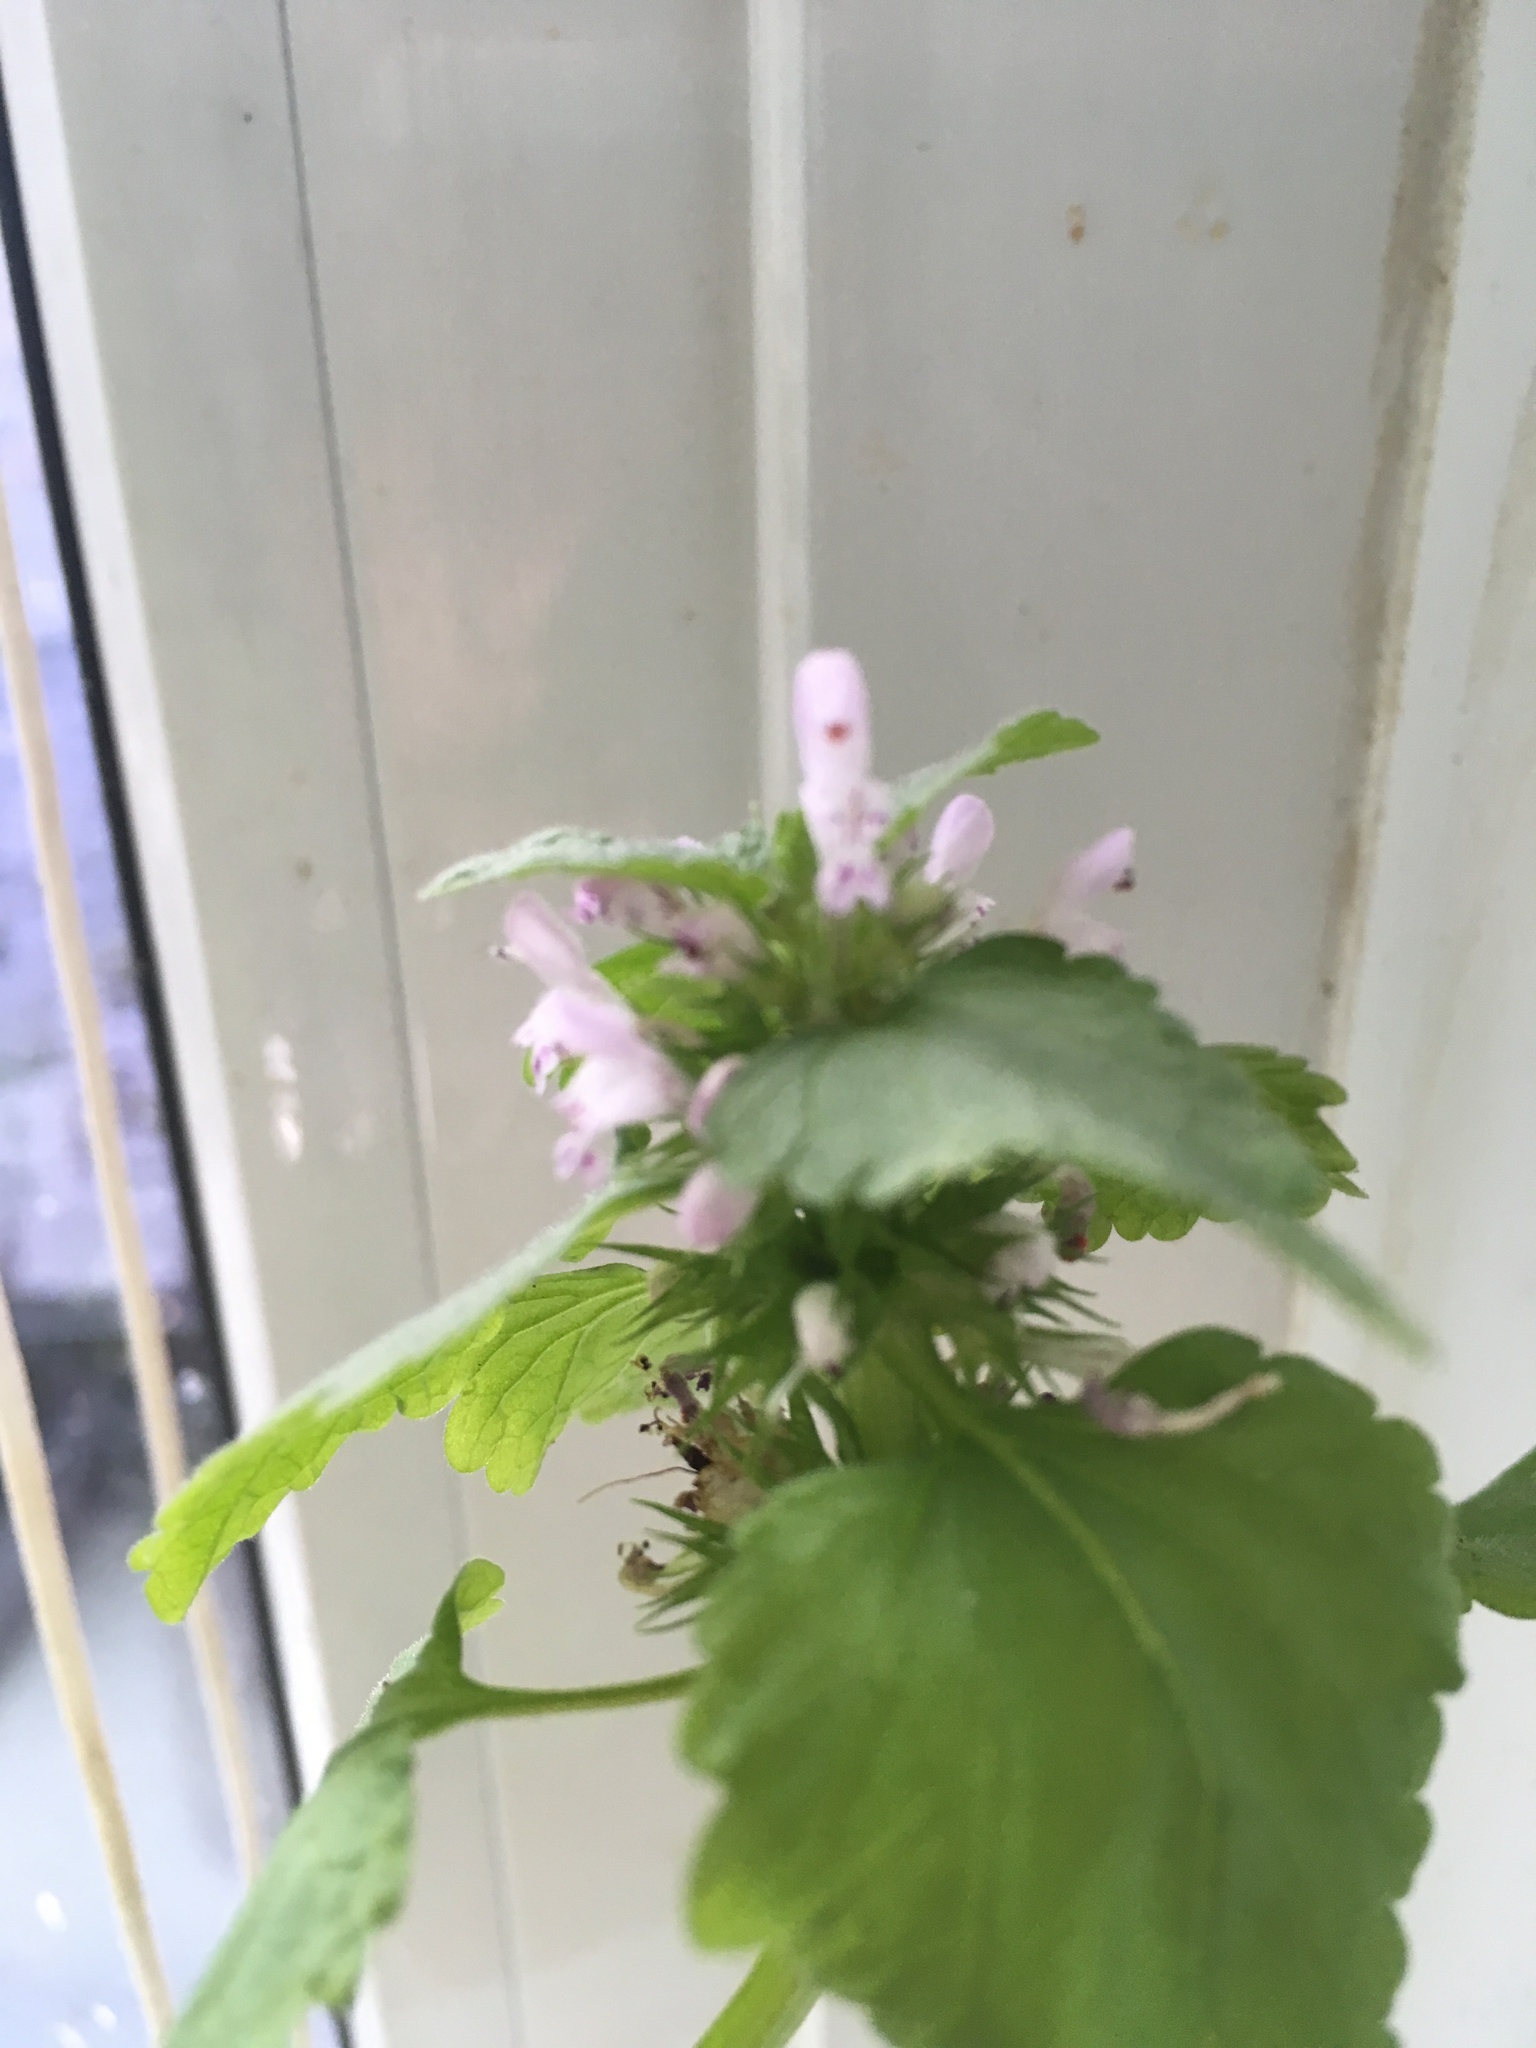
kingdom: Plantae
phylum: Tracheophyta
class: Magnoliopsida
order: Lamiales
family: Lamiaceae
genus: Lamium
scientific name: Lamium purpureum
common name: Red dead-nettle
